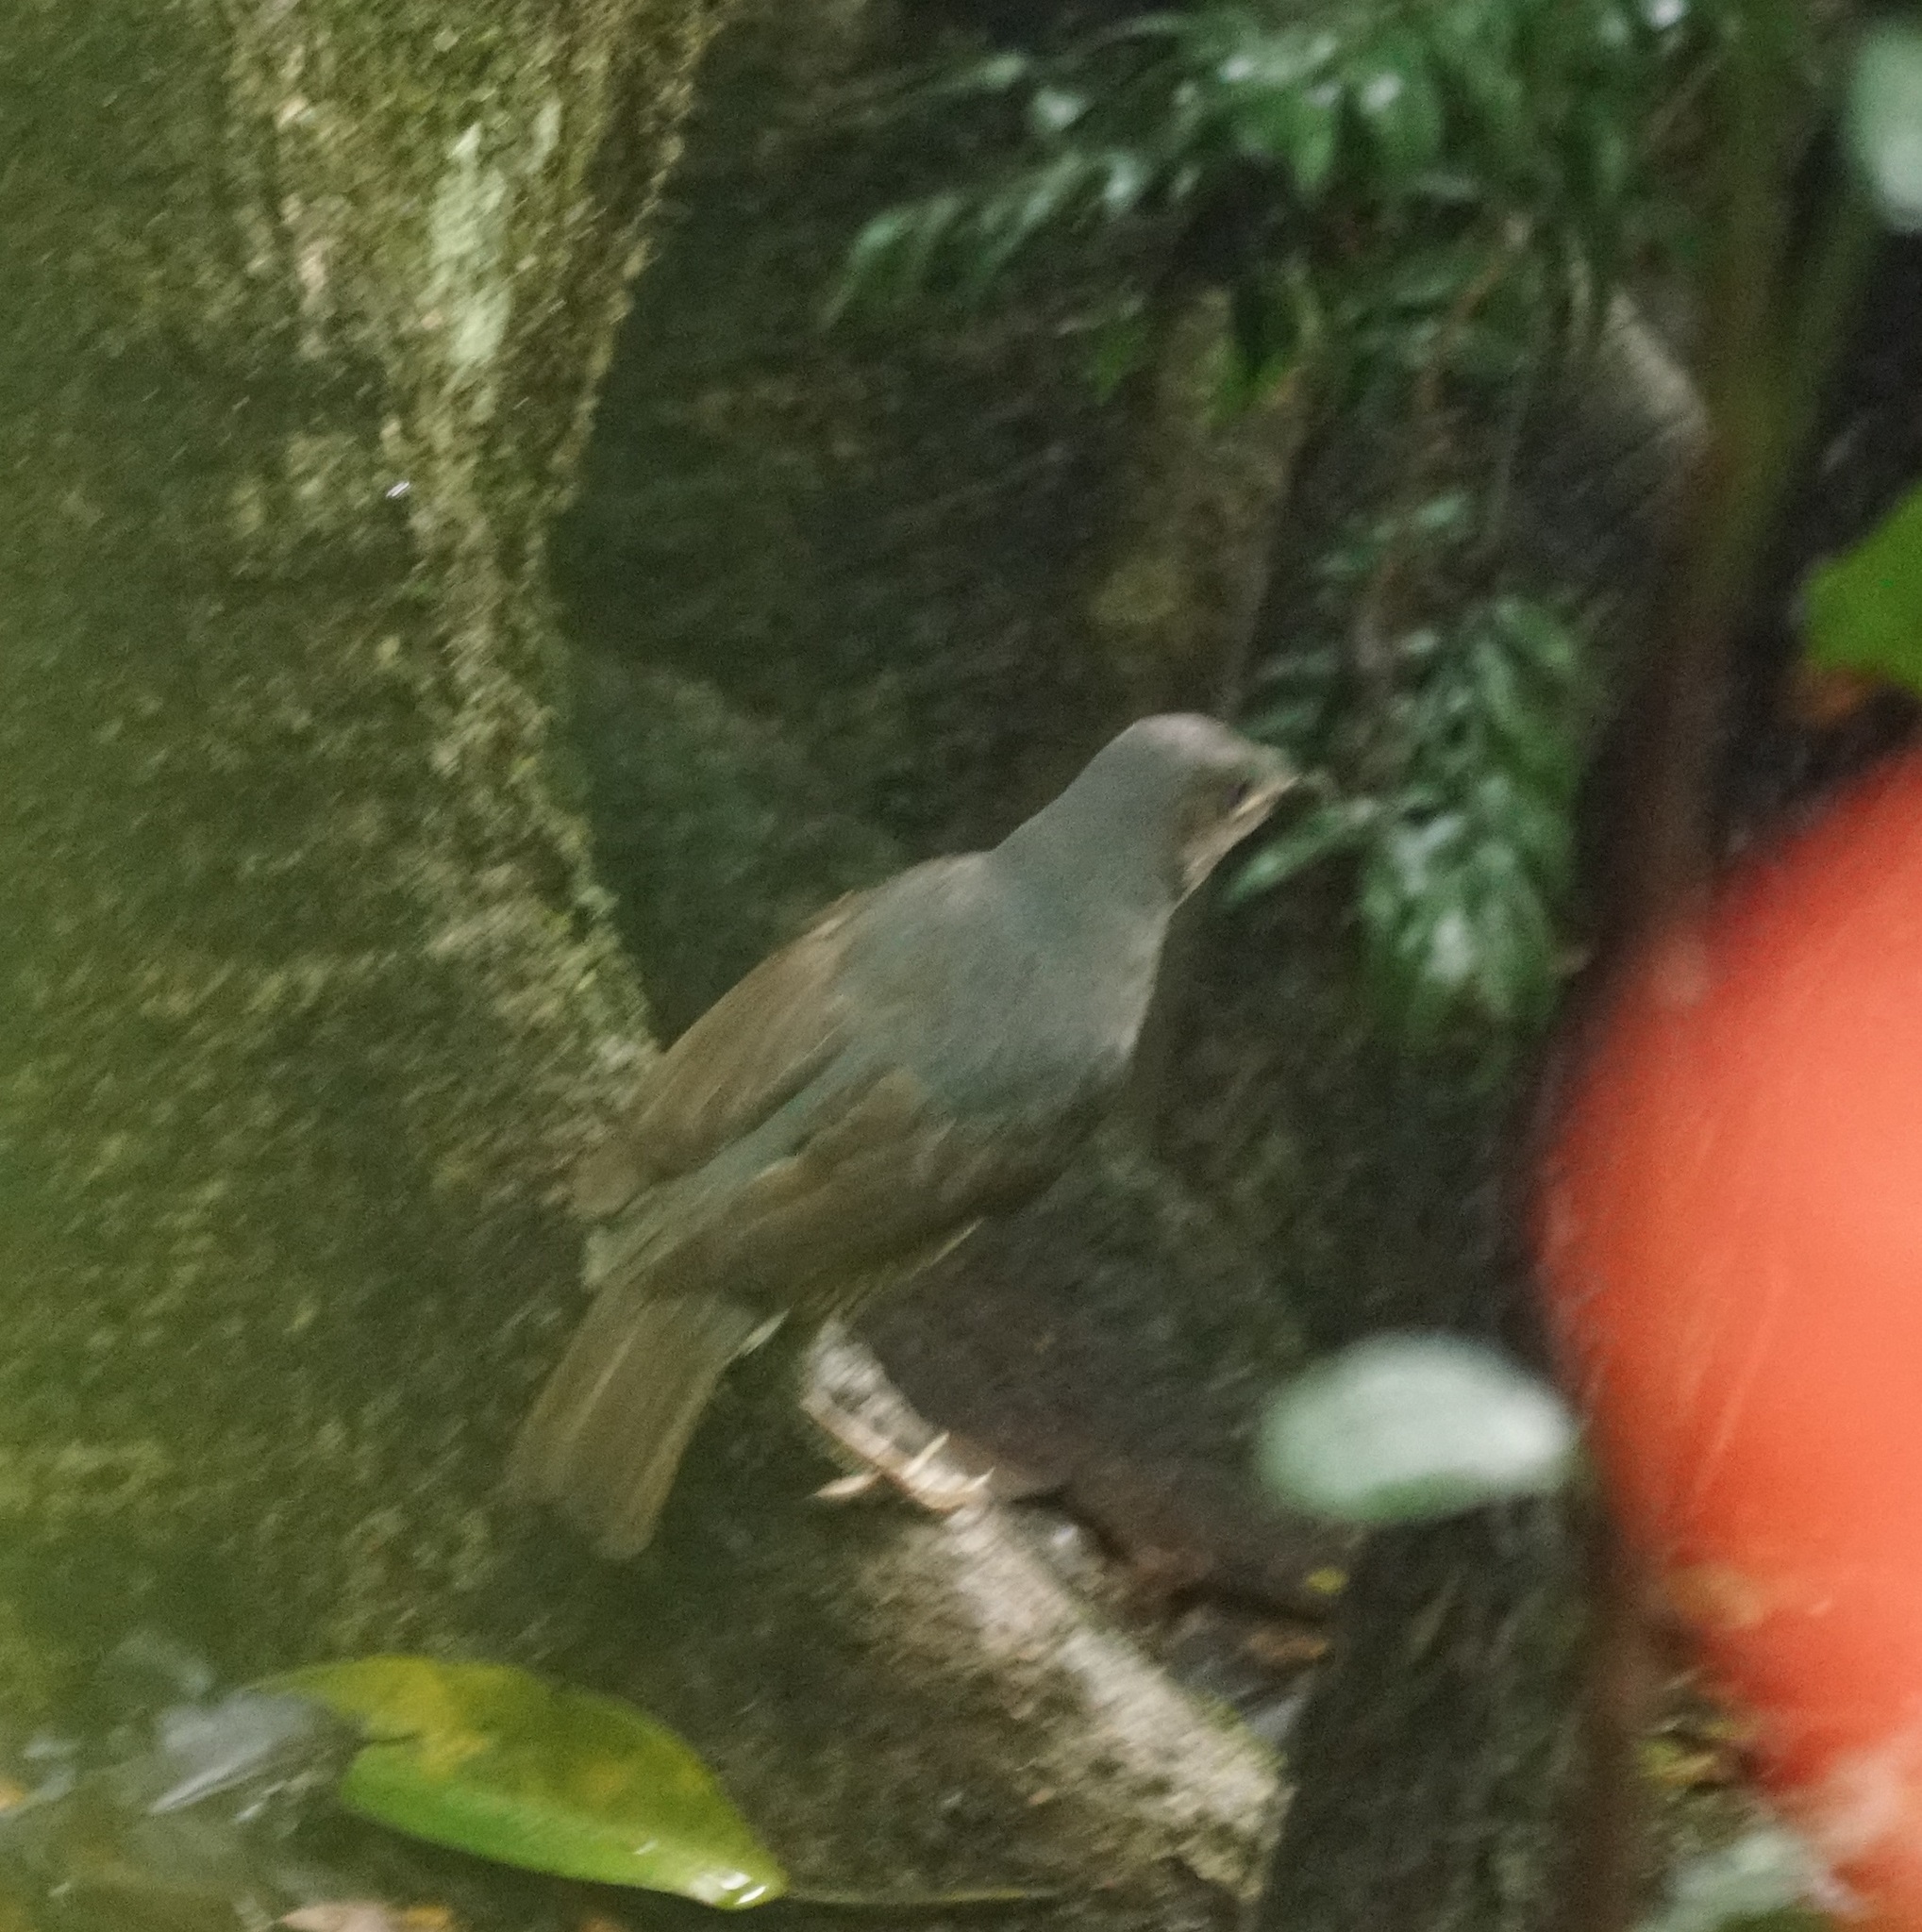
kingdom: Animalia
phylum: Chordata
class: Aves
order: Passeriformes
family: Ptilonorhynchidae
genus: Ptilonorhynchus
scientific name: Ptilonorhynchus violaceus
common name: Satin bowerbird
